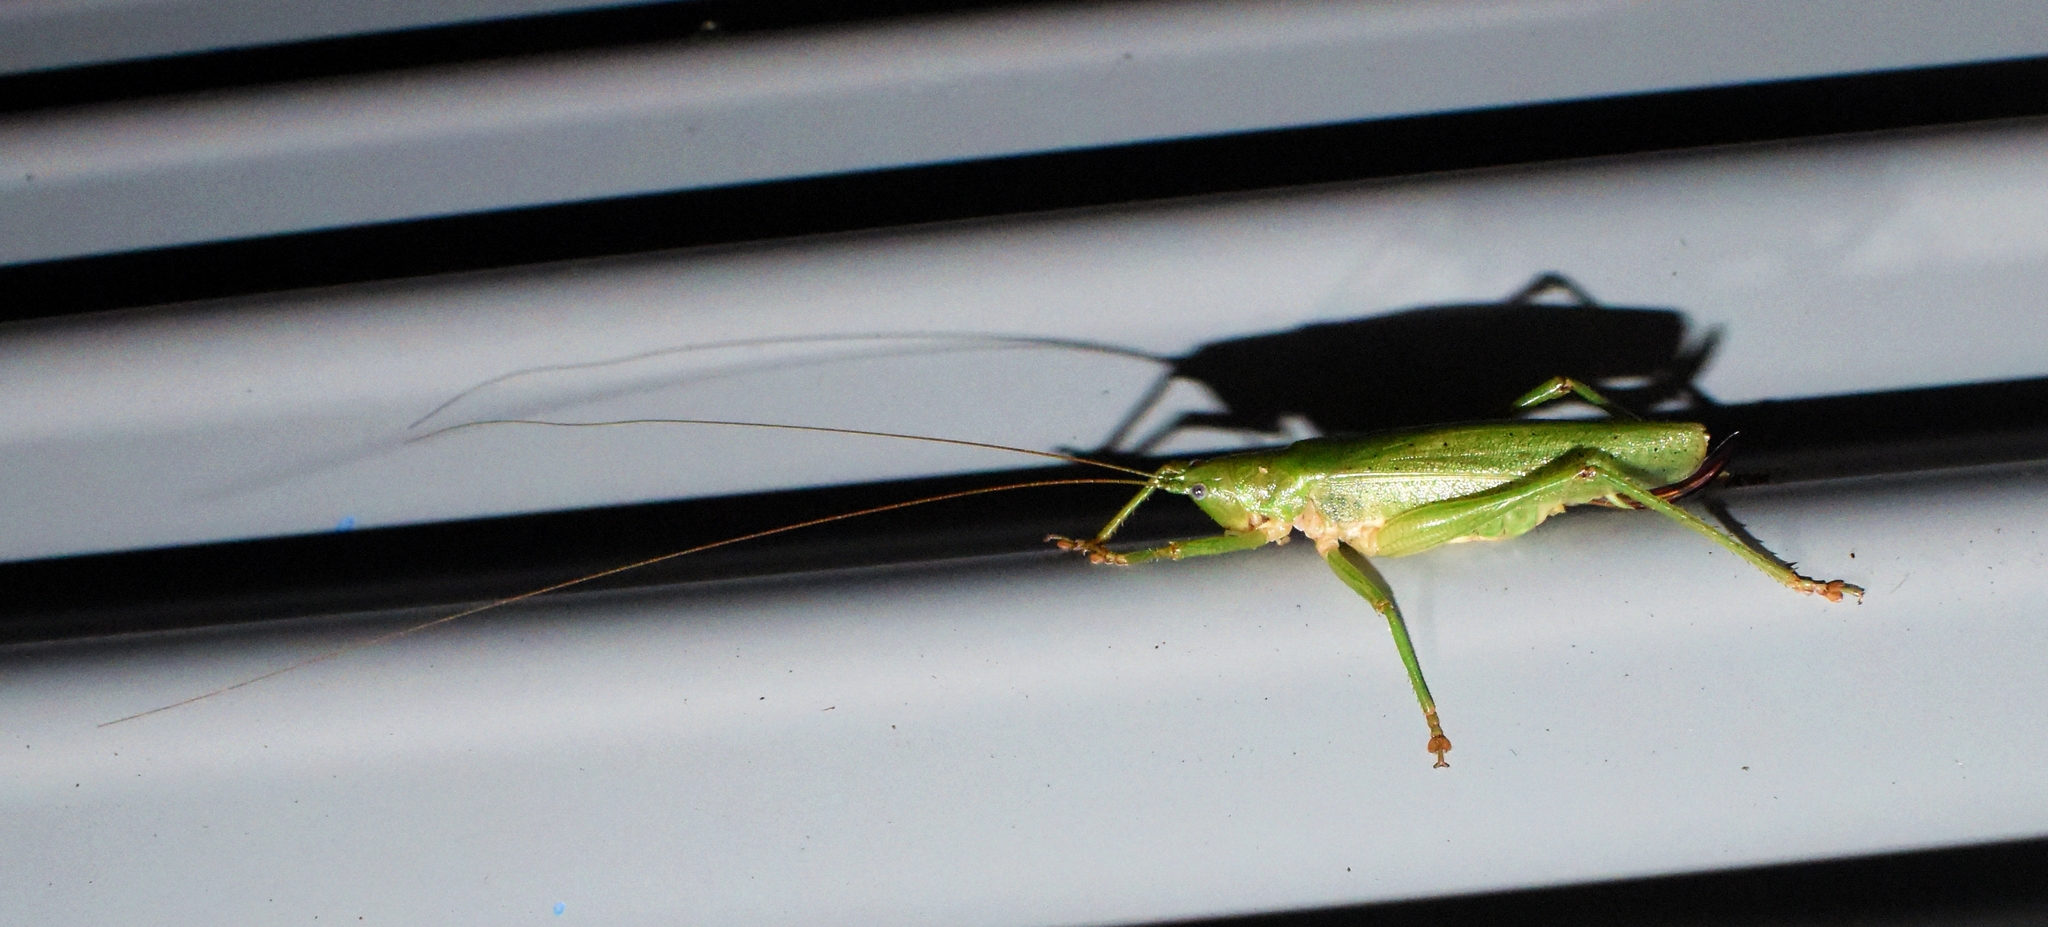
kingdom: Animalia
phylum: Arthropoda
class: Insecta
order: Orthoptera
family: Tettigoniidae
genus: Austrosalomona
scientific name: Austrosalomona destructor
